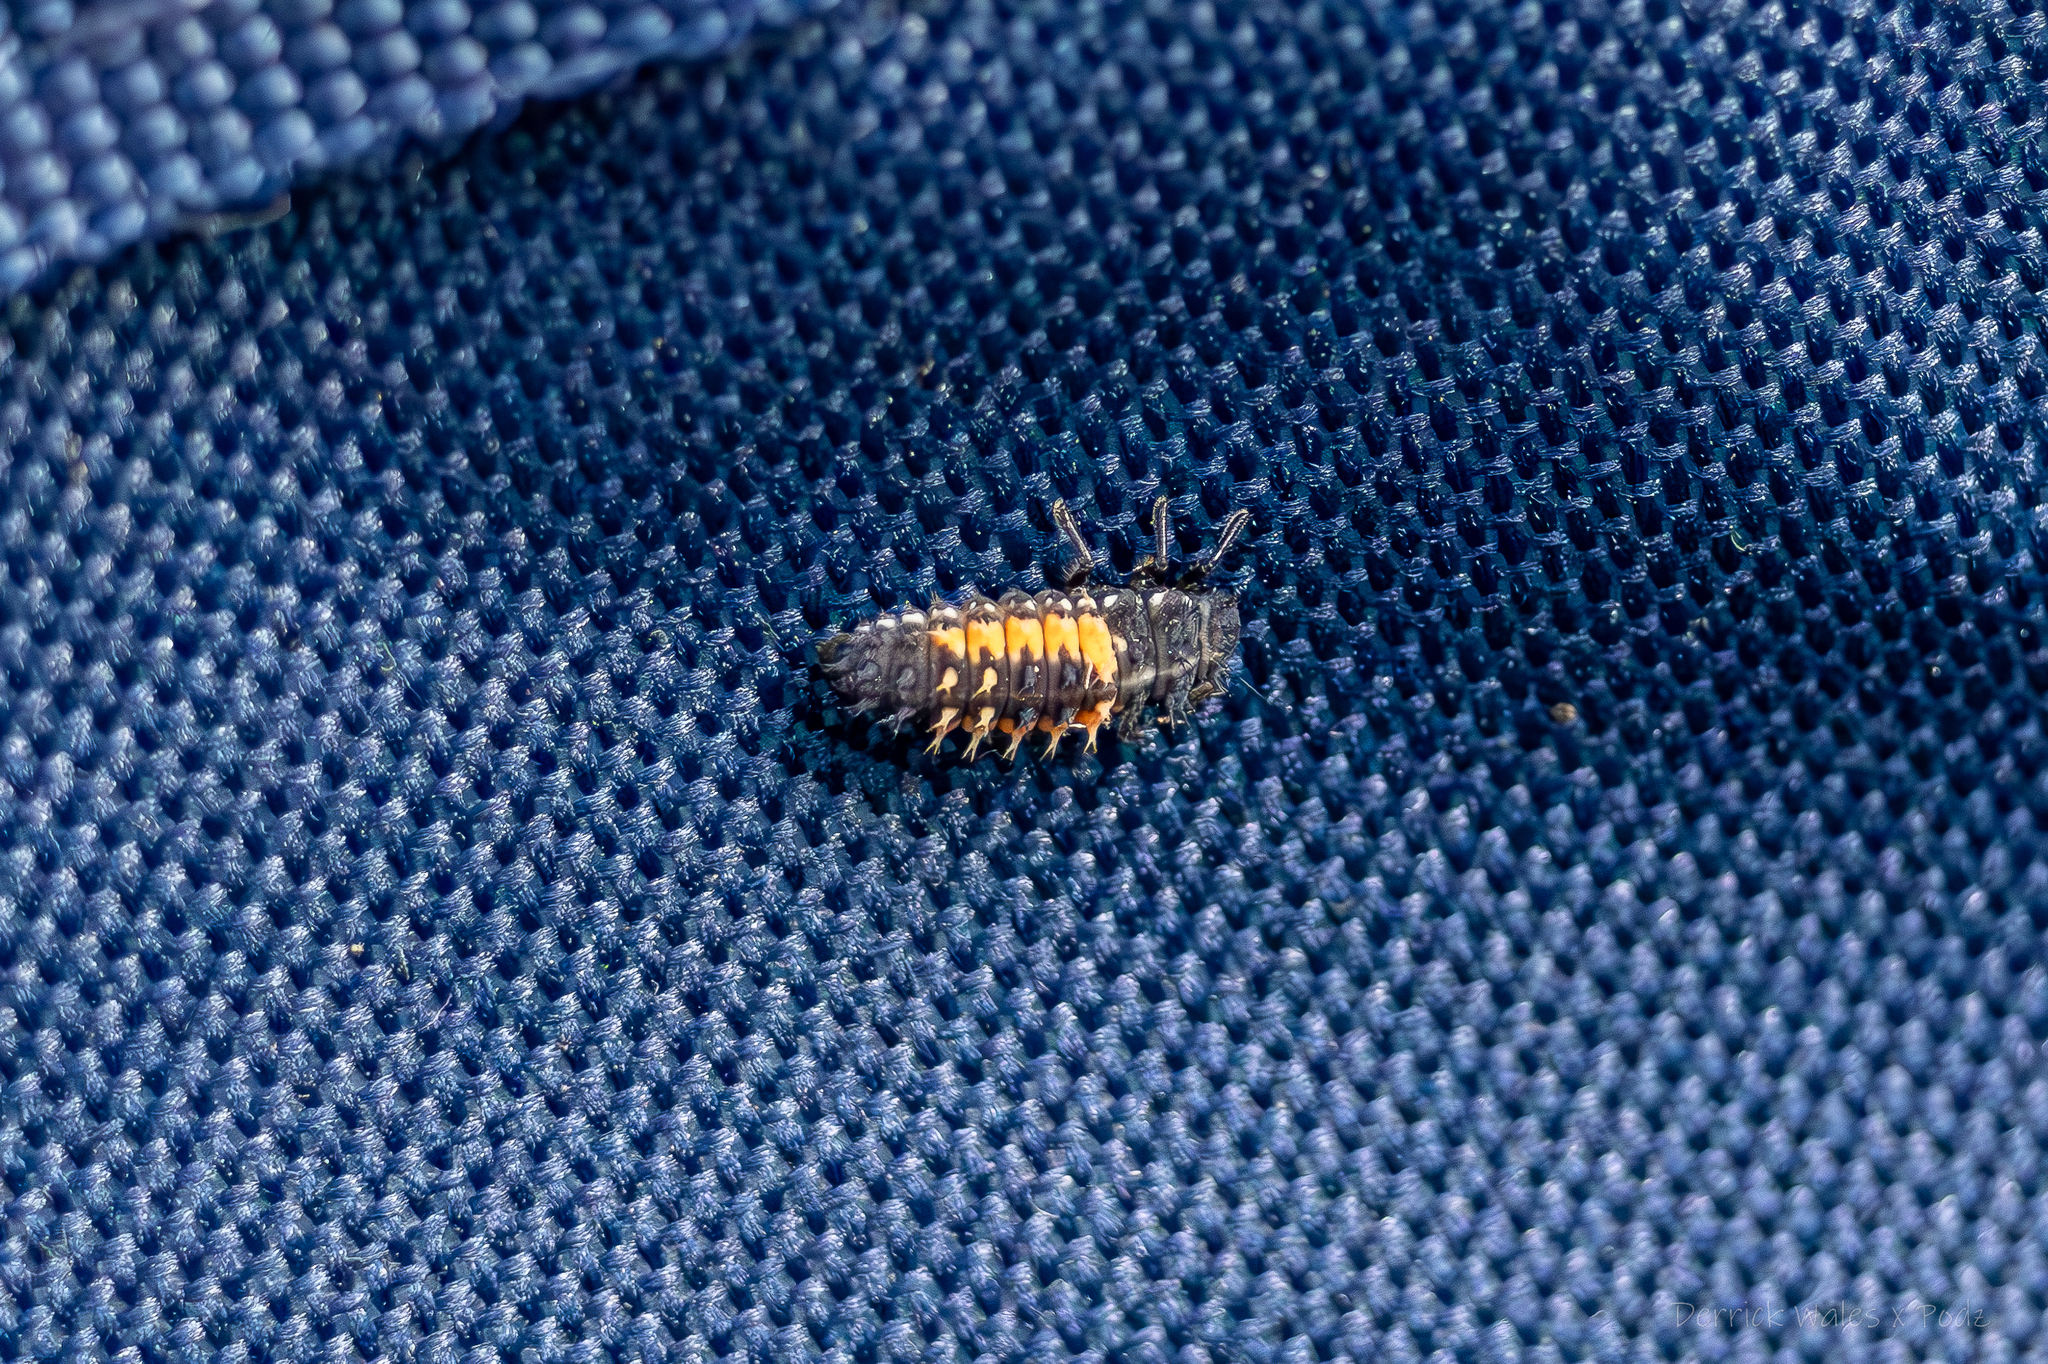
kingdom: Animalia
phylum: Arthropoda
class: Insecta
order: Coleoptera
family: Coccinellidae
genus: Harmonia
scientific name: Harmonia axyridis
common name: Harlequin ladybird
